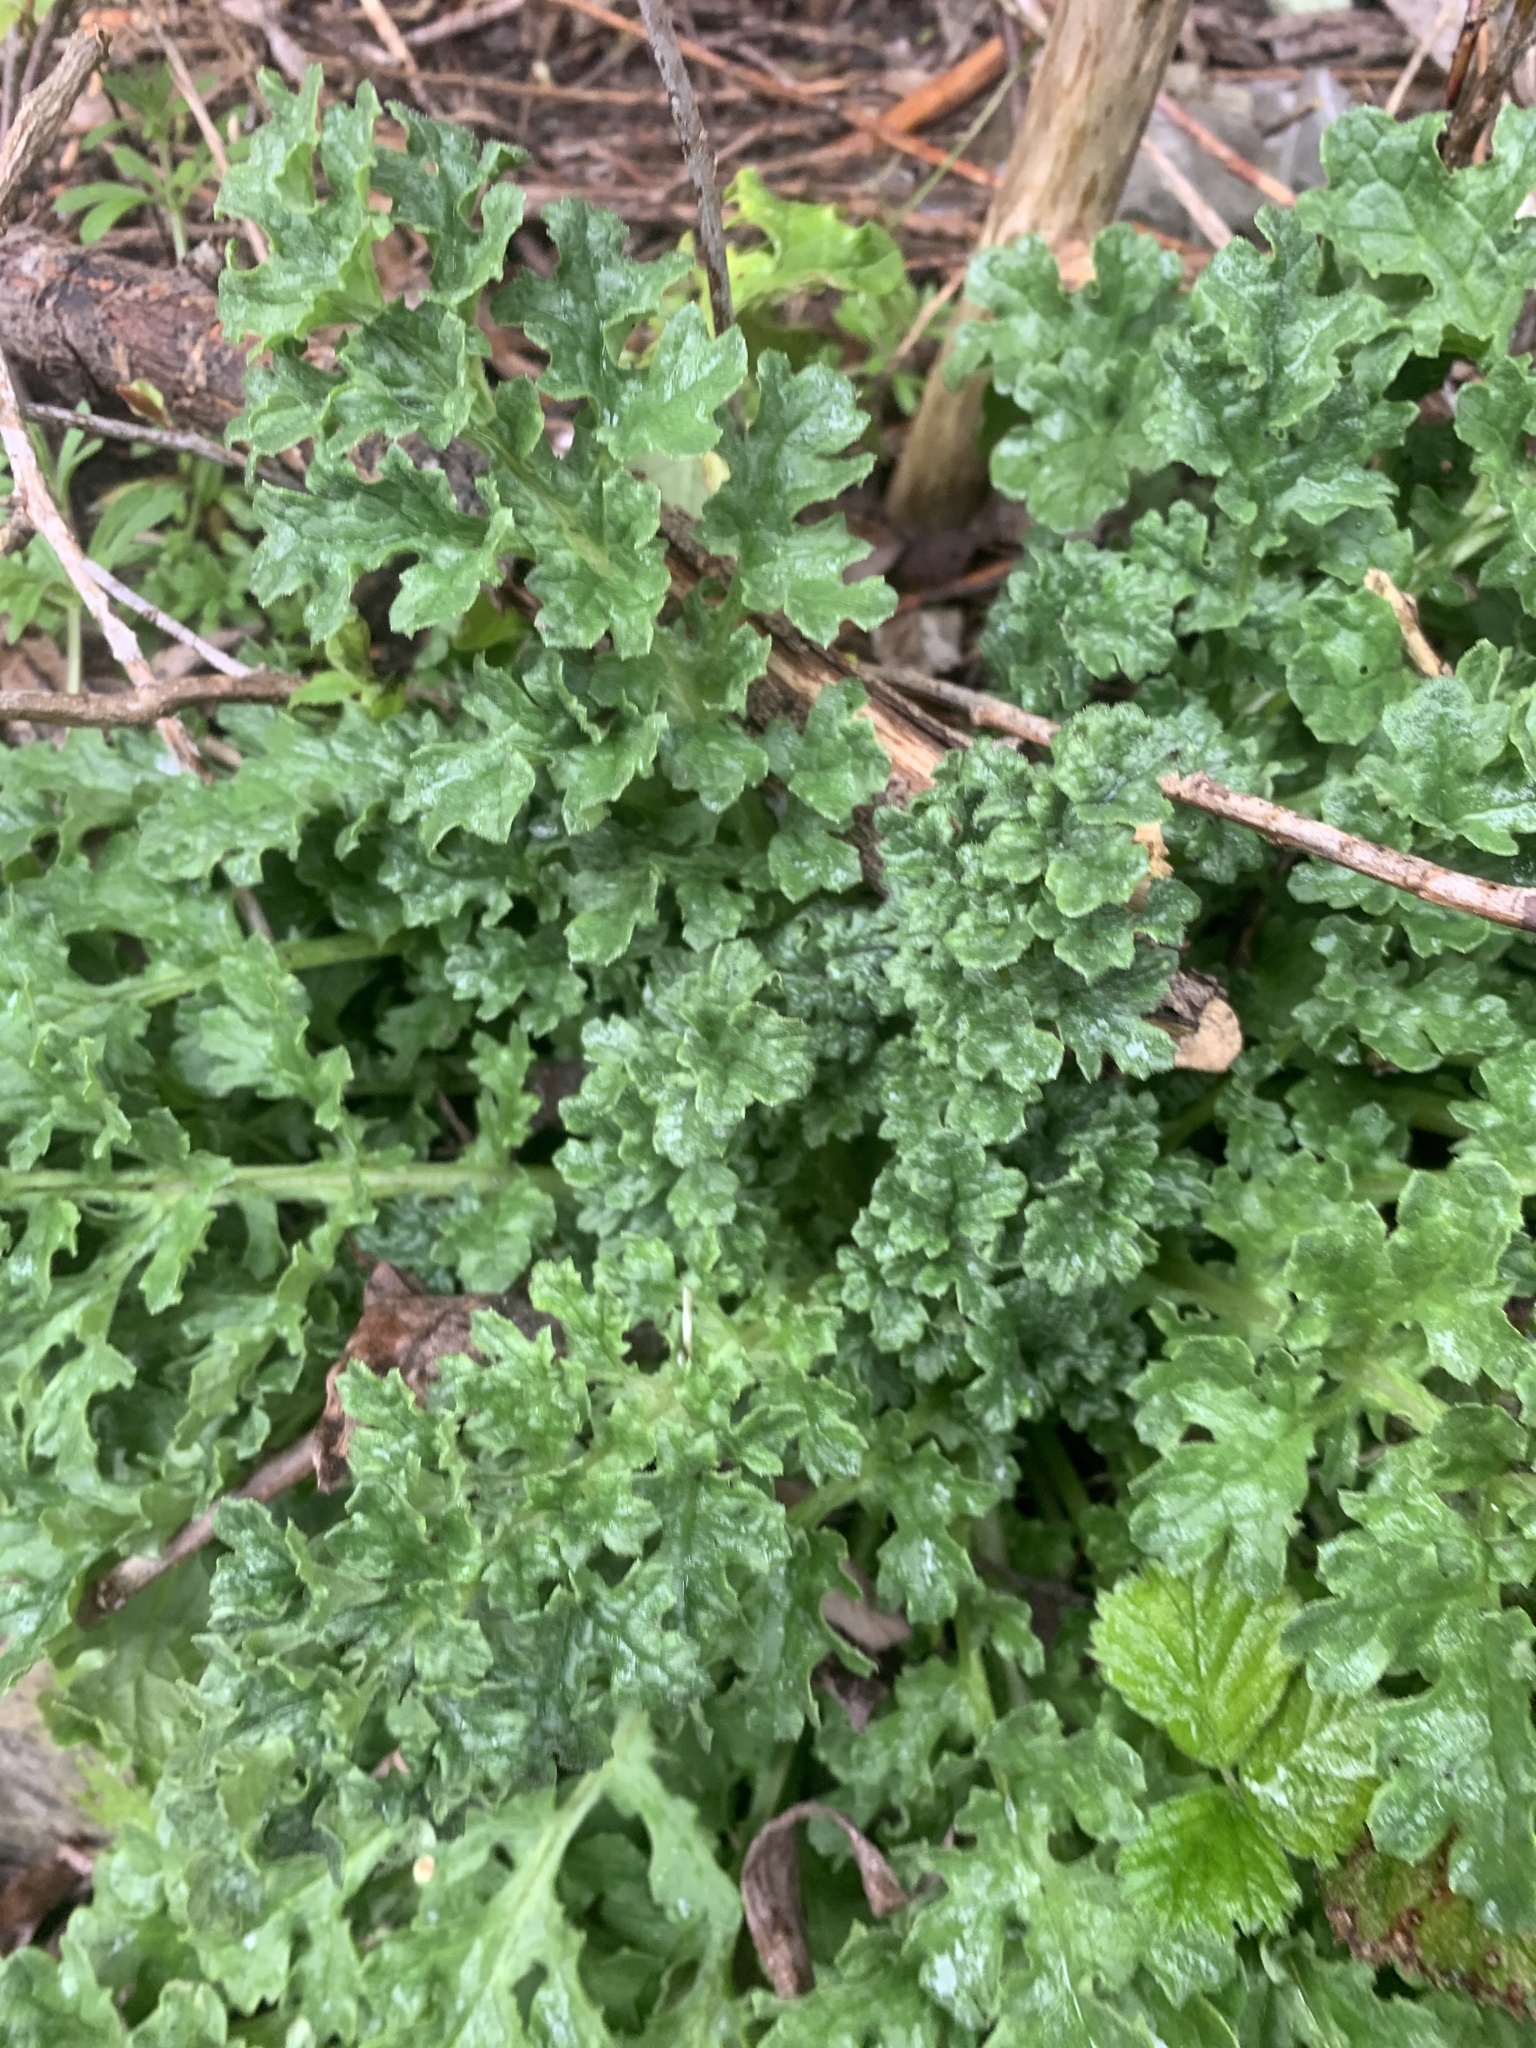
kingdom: Plantae
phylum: Tracheophyta
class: Magnoliopsida
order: Asterales
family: Asteraceae
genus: Jacobaea
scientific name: Jacobaea vulgaris
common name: Stinking willie
